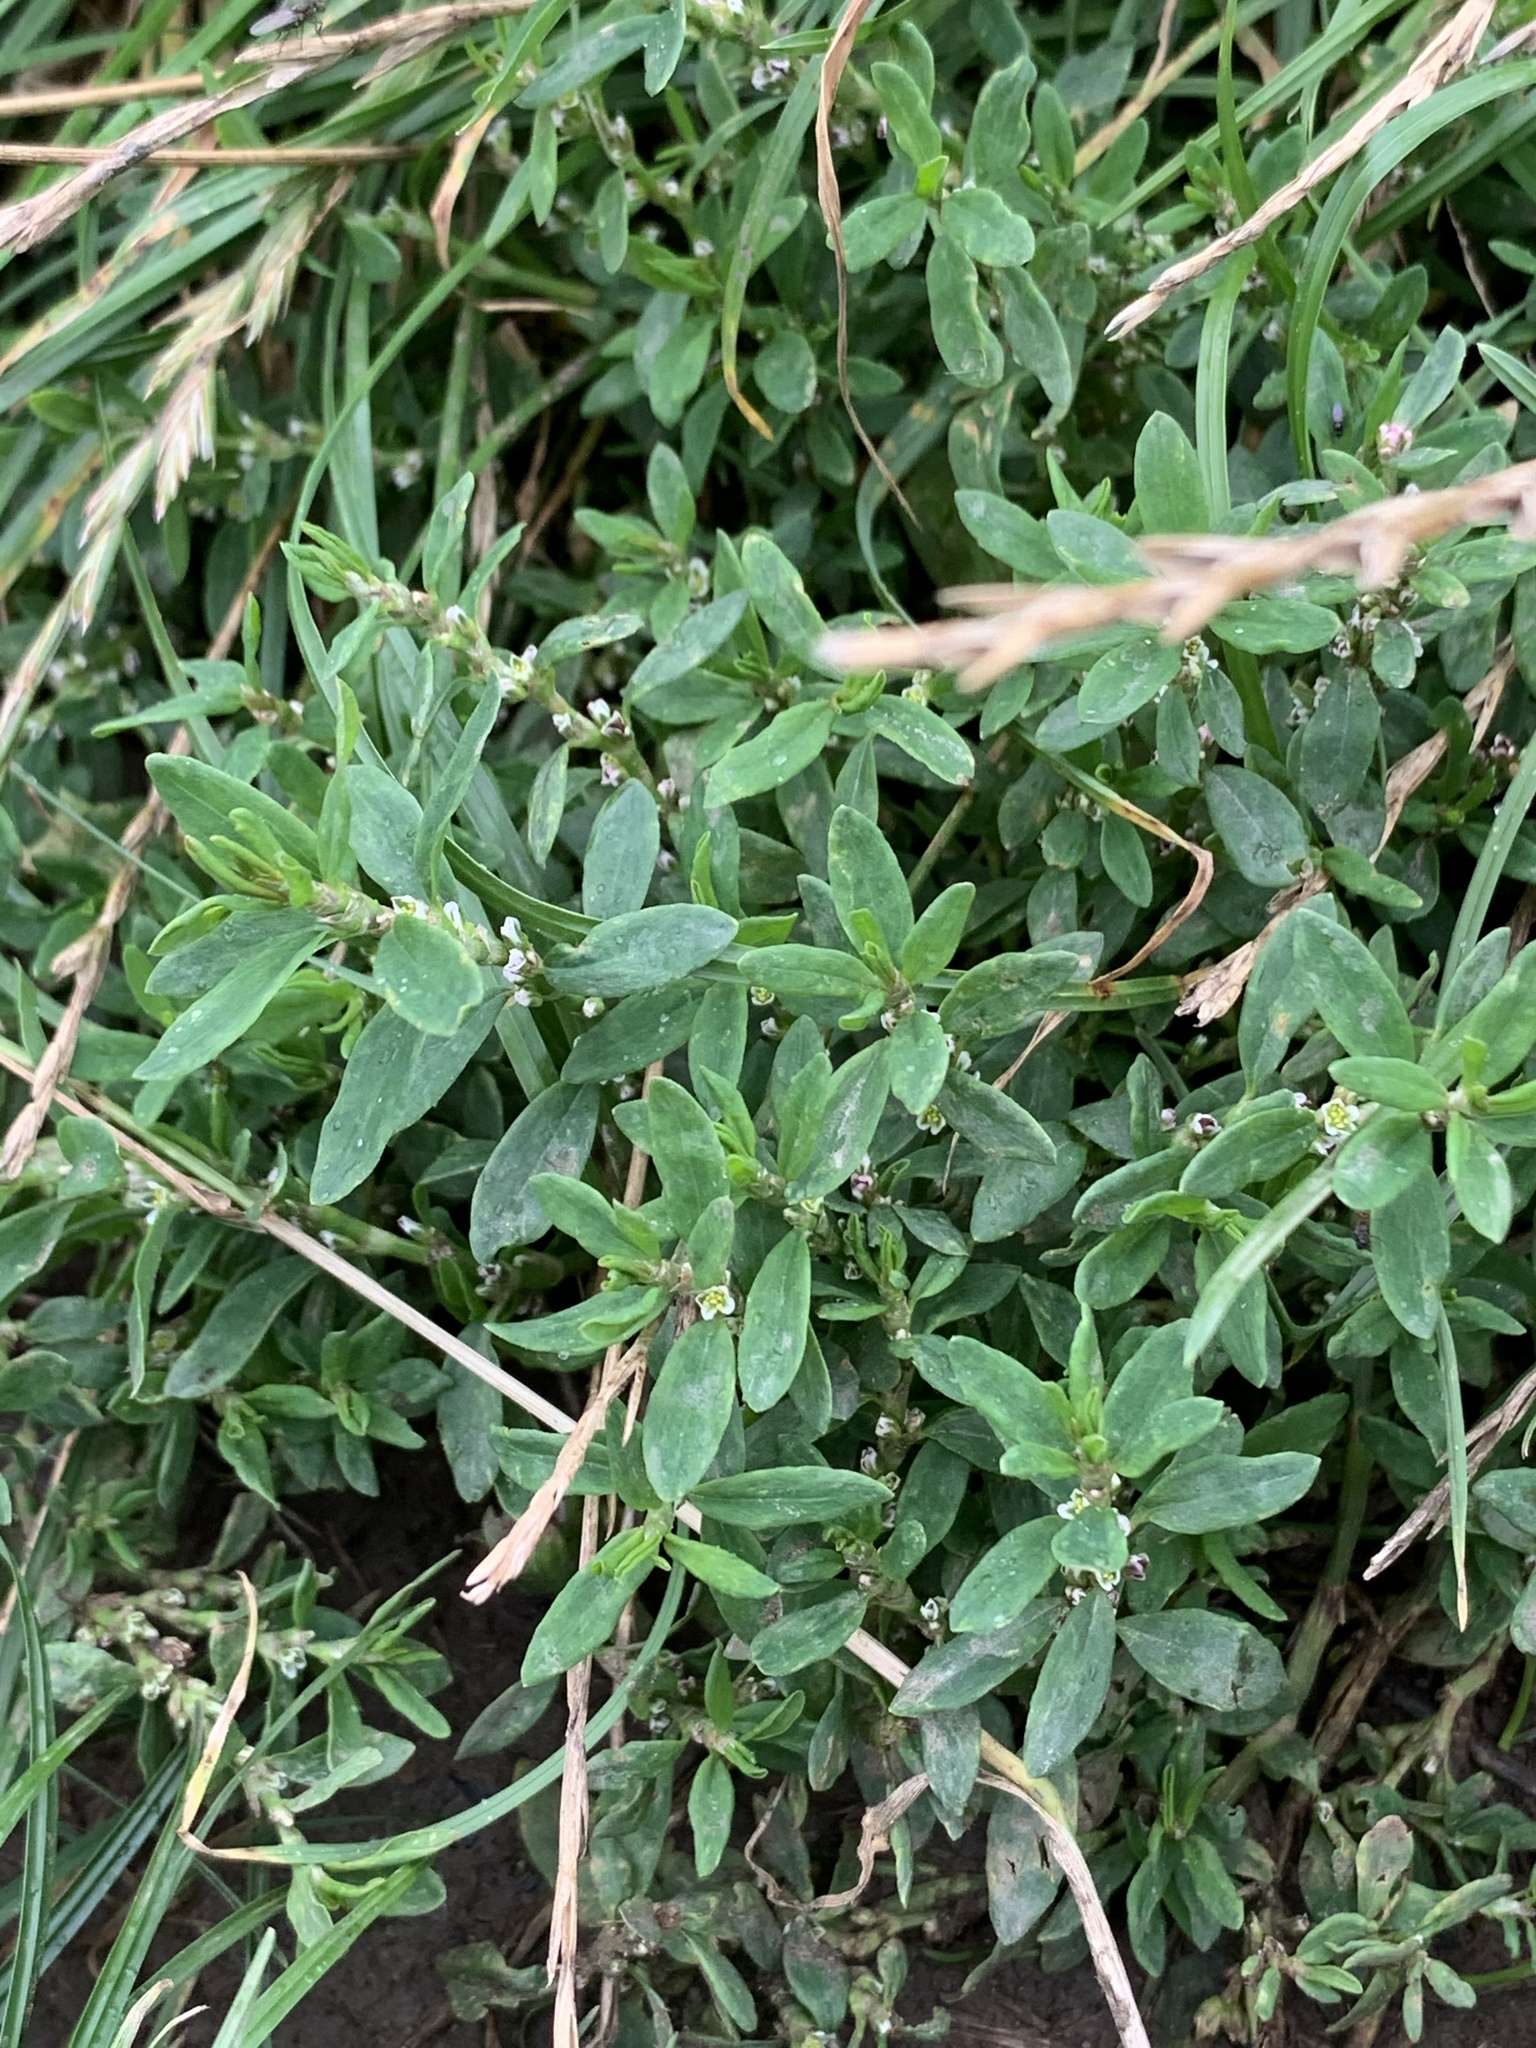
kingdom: Plantae
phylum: Tracheophyta
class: Magnoliopsida
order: Caryophyllales
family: Polygonaceae
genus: Polygonum
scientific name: Polygonum aviculare
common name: Prostrate knotweed
